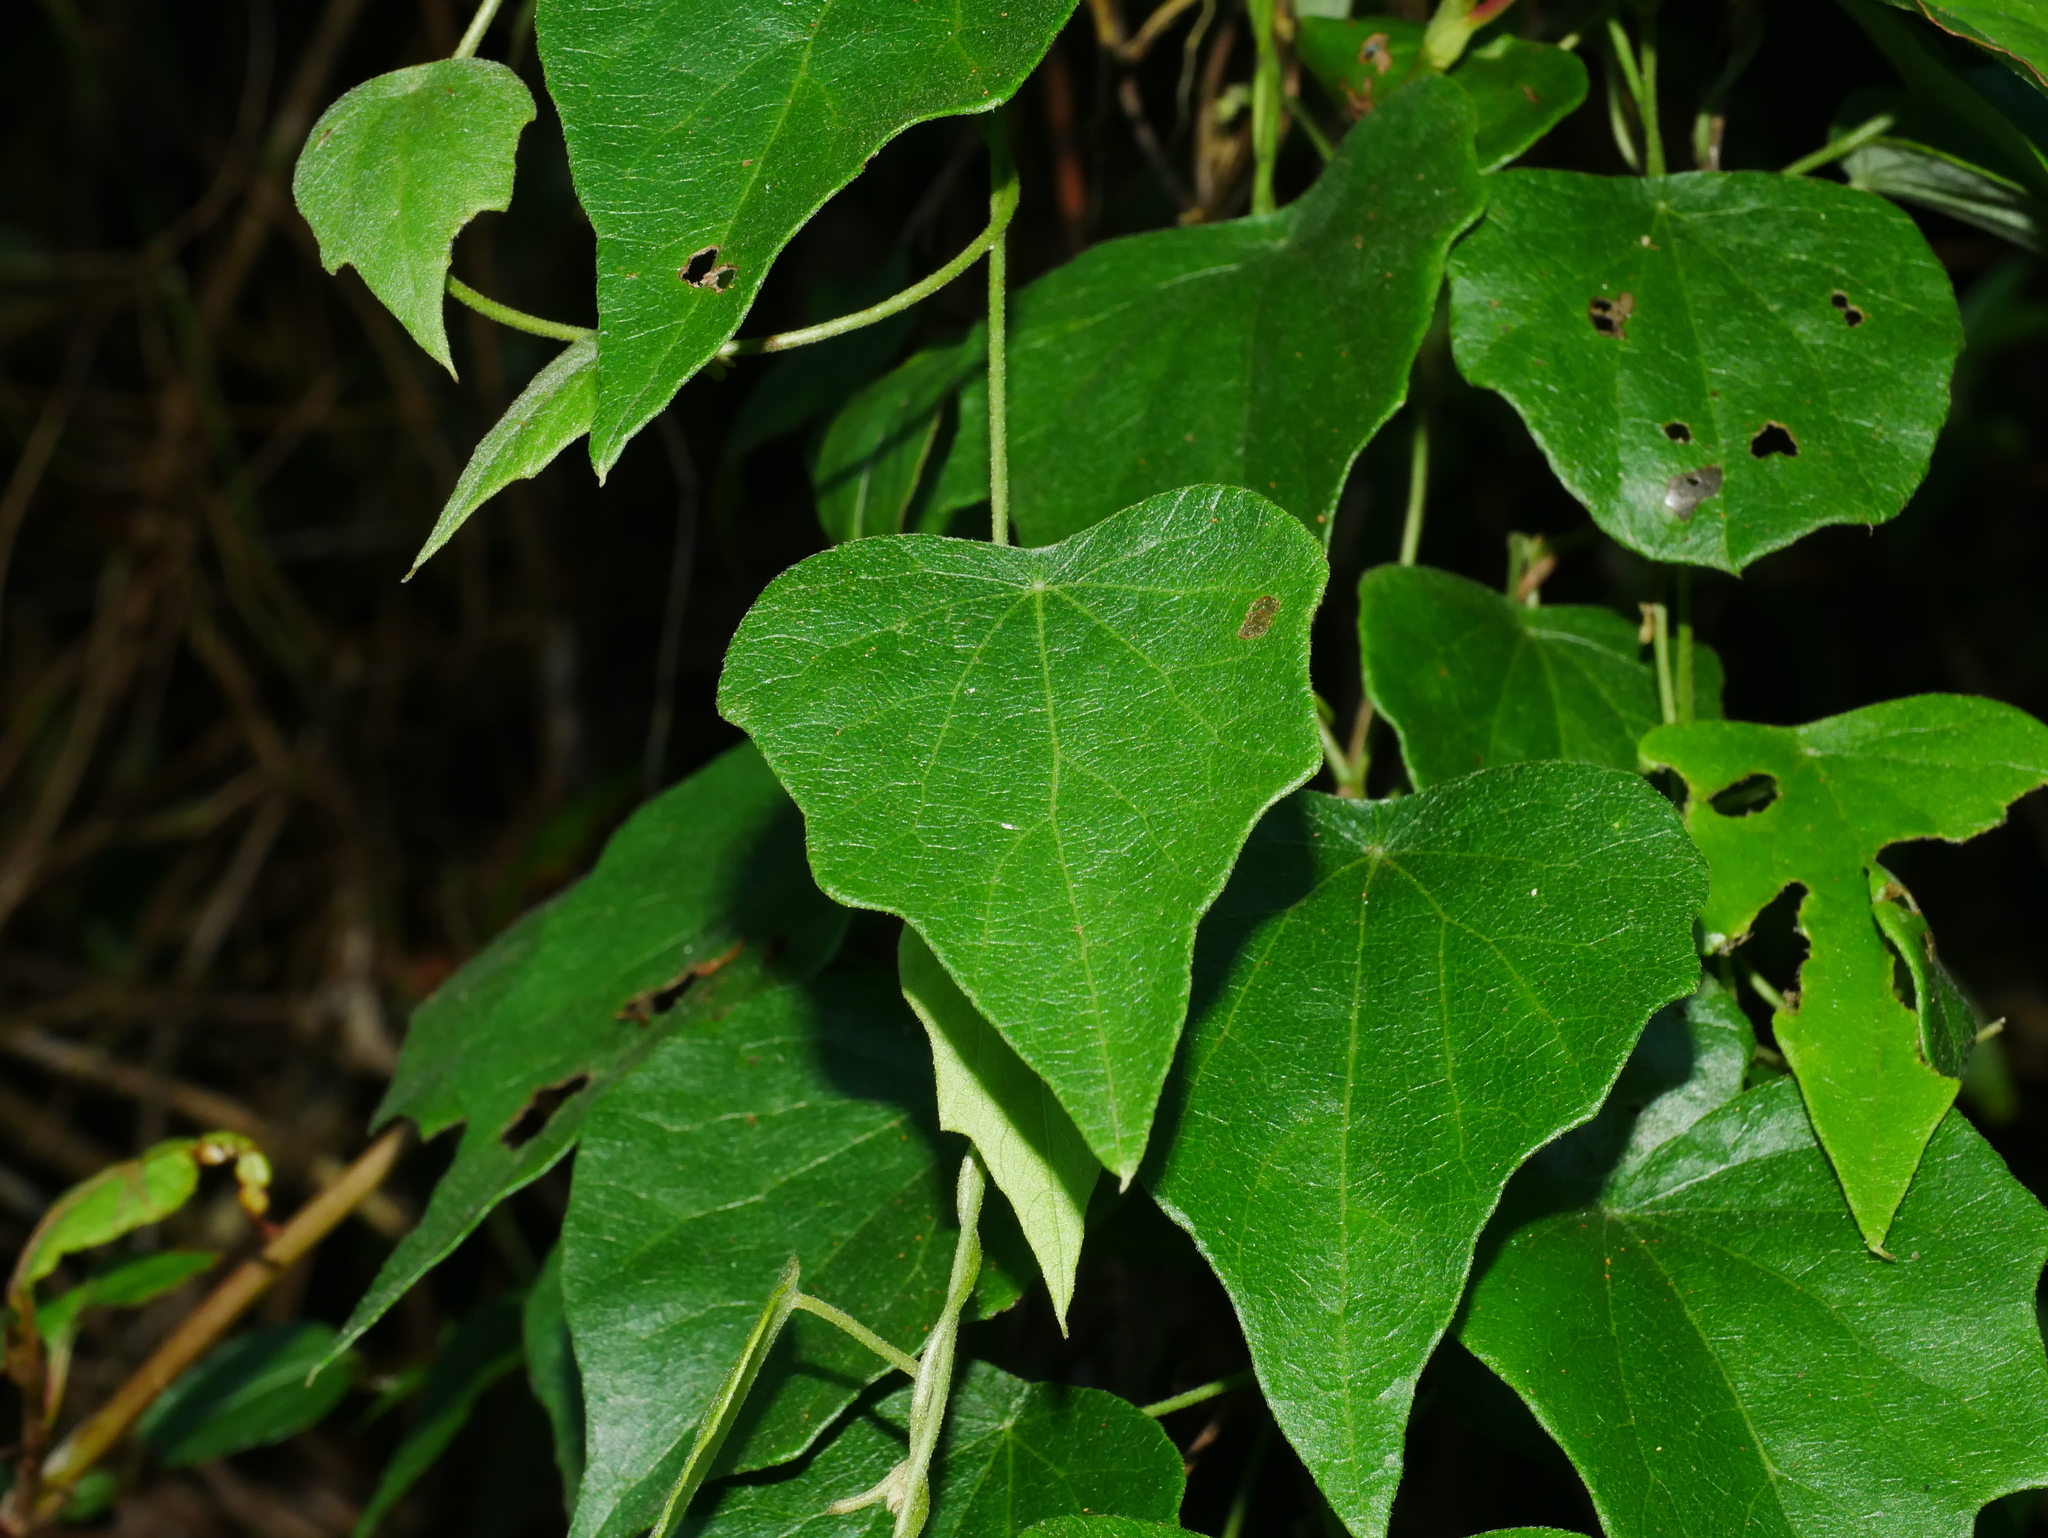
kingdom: Plantae
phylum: Tracheophyta
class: Magnoliopsida
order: Ranunculales
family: Menispermaceae
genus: Cyclea
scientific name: Cyclea ochiaiana
